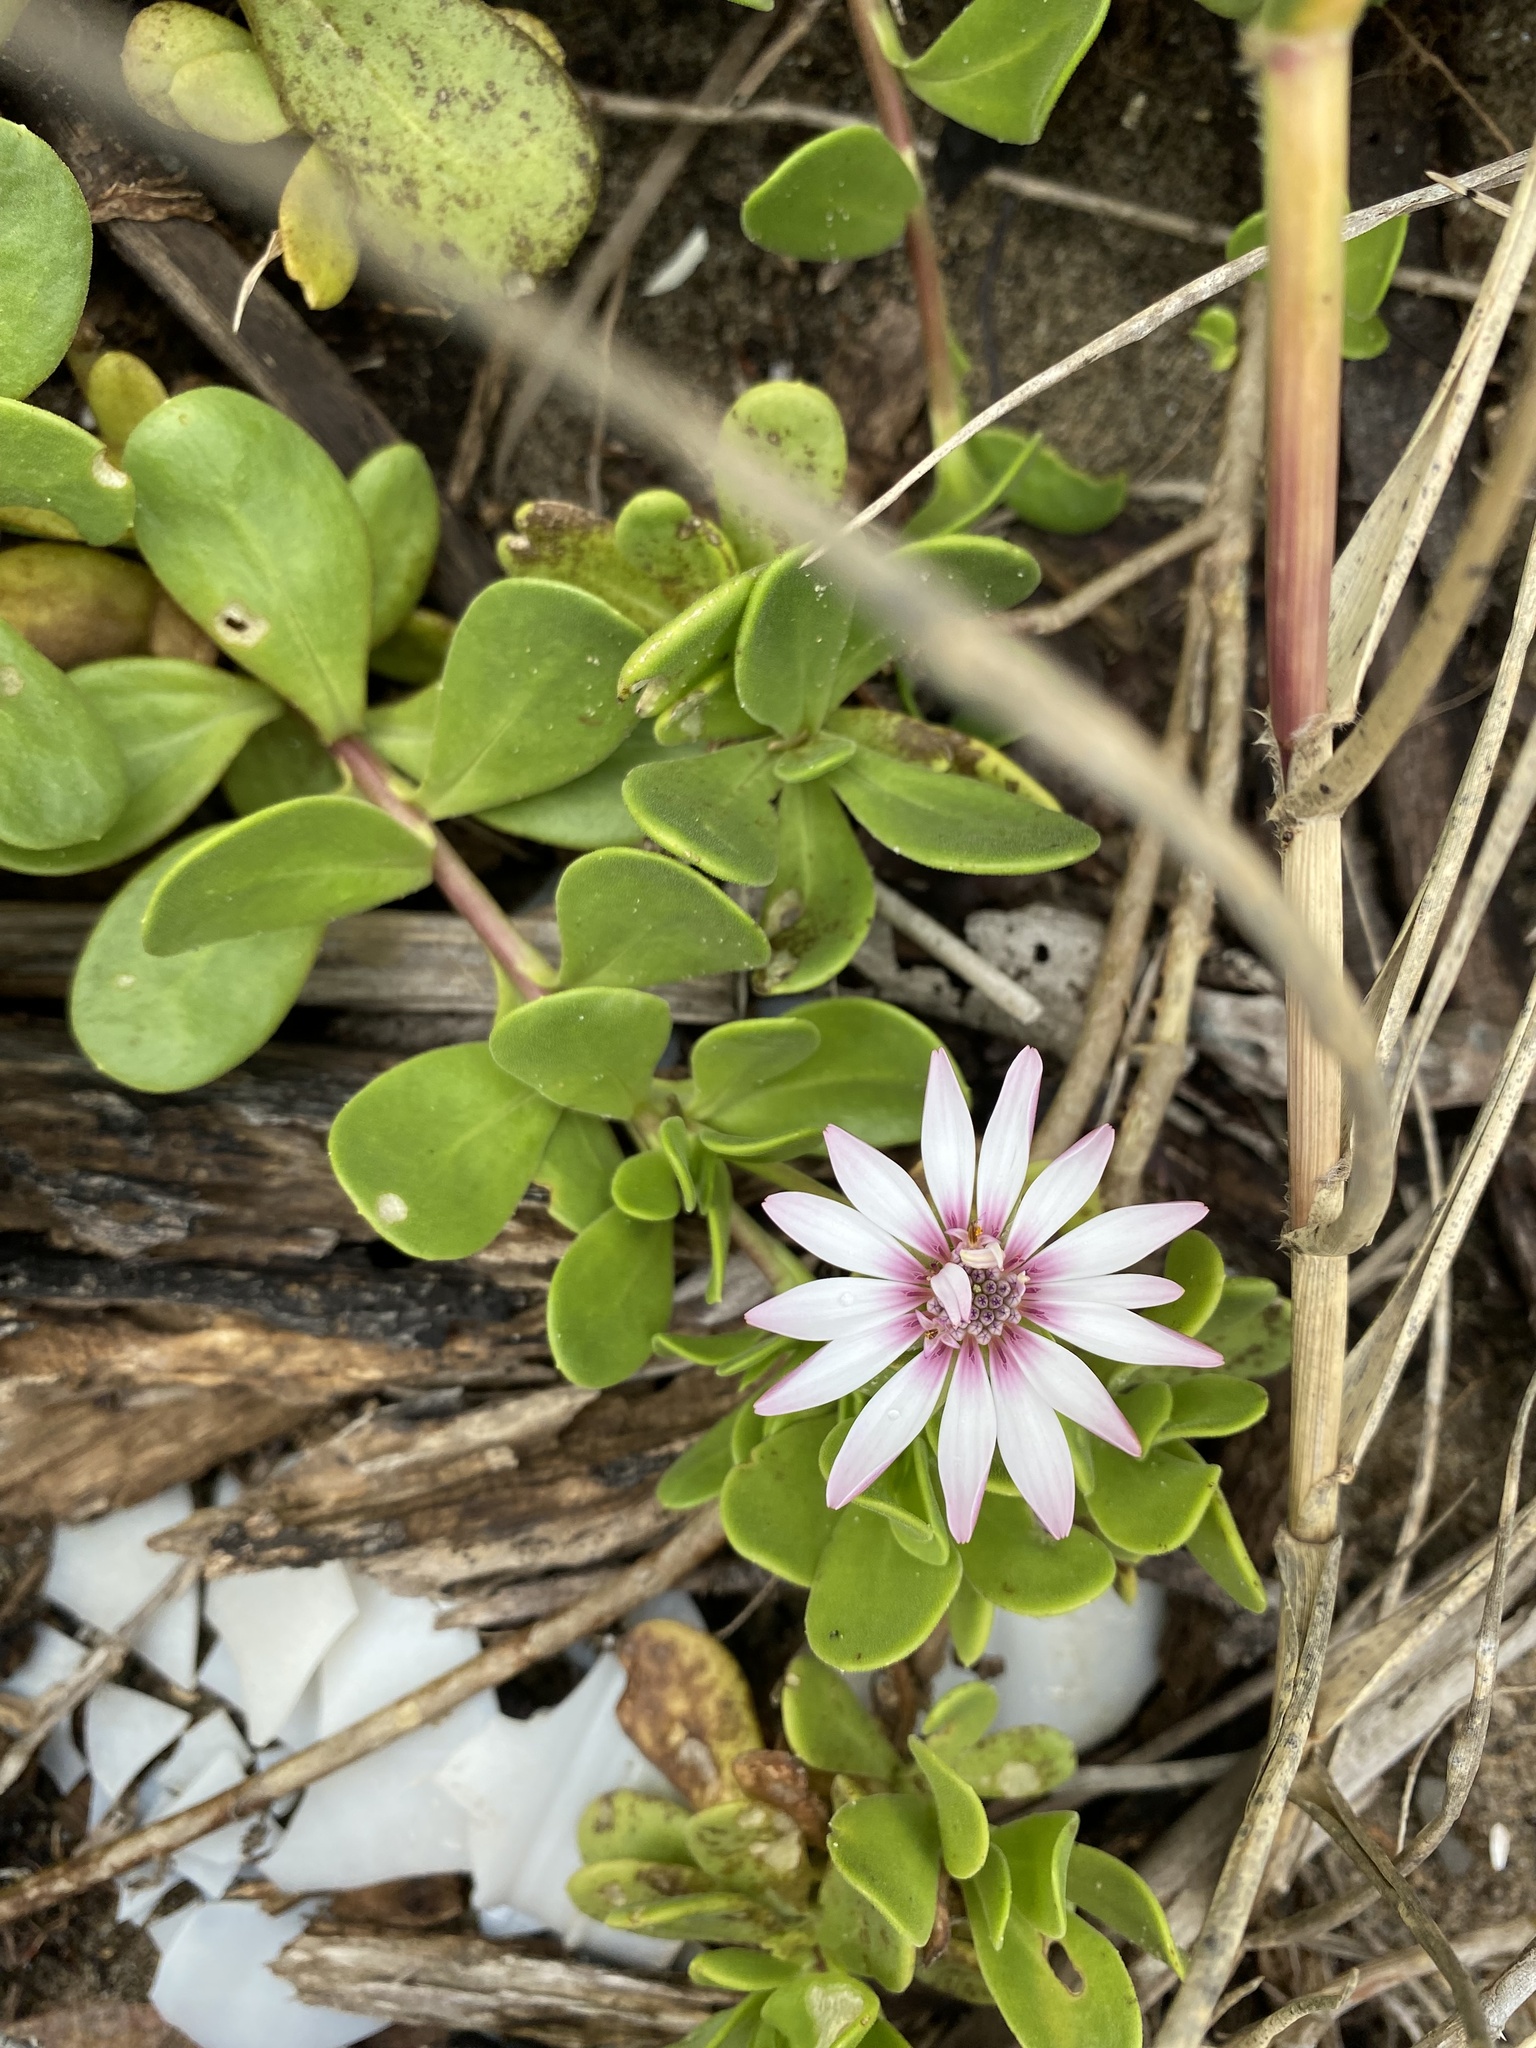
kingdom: Plantae
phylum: Tracheophyta
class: Magnoliopsida
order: Asterales
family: Asteraceae
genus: Dimorphotheca
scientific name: Dimorphotheca fruticosa
